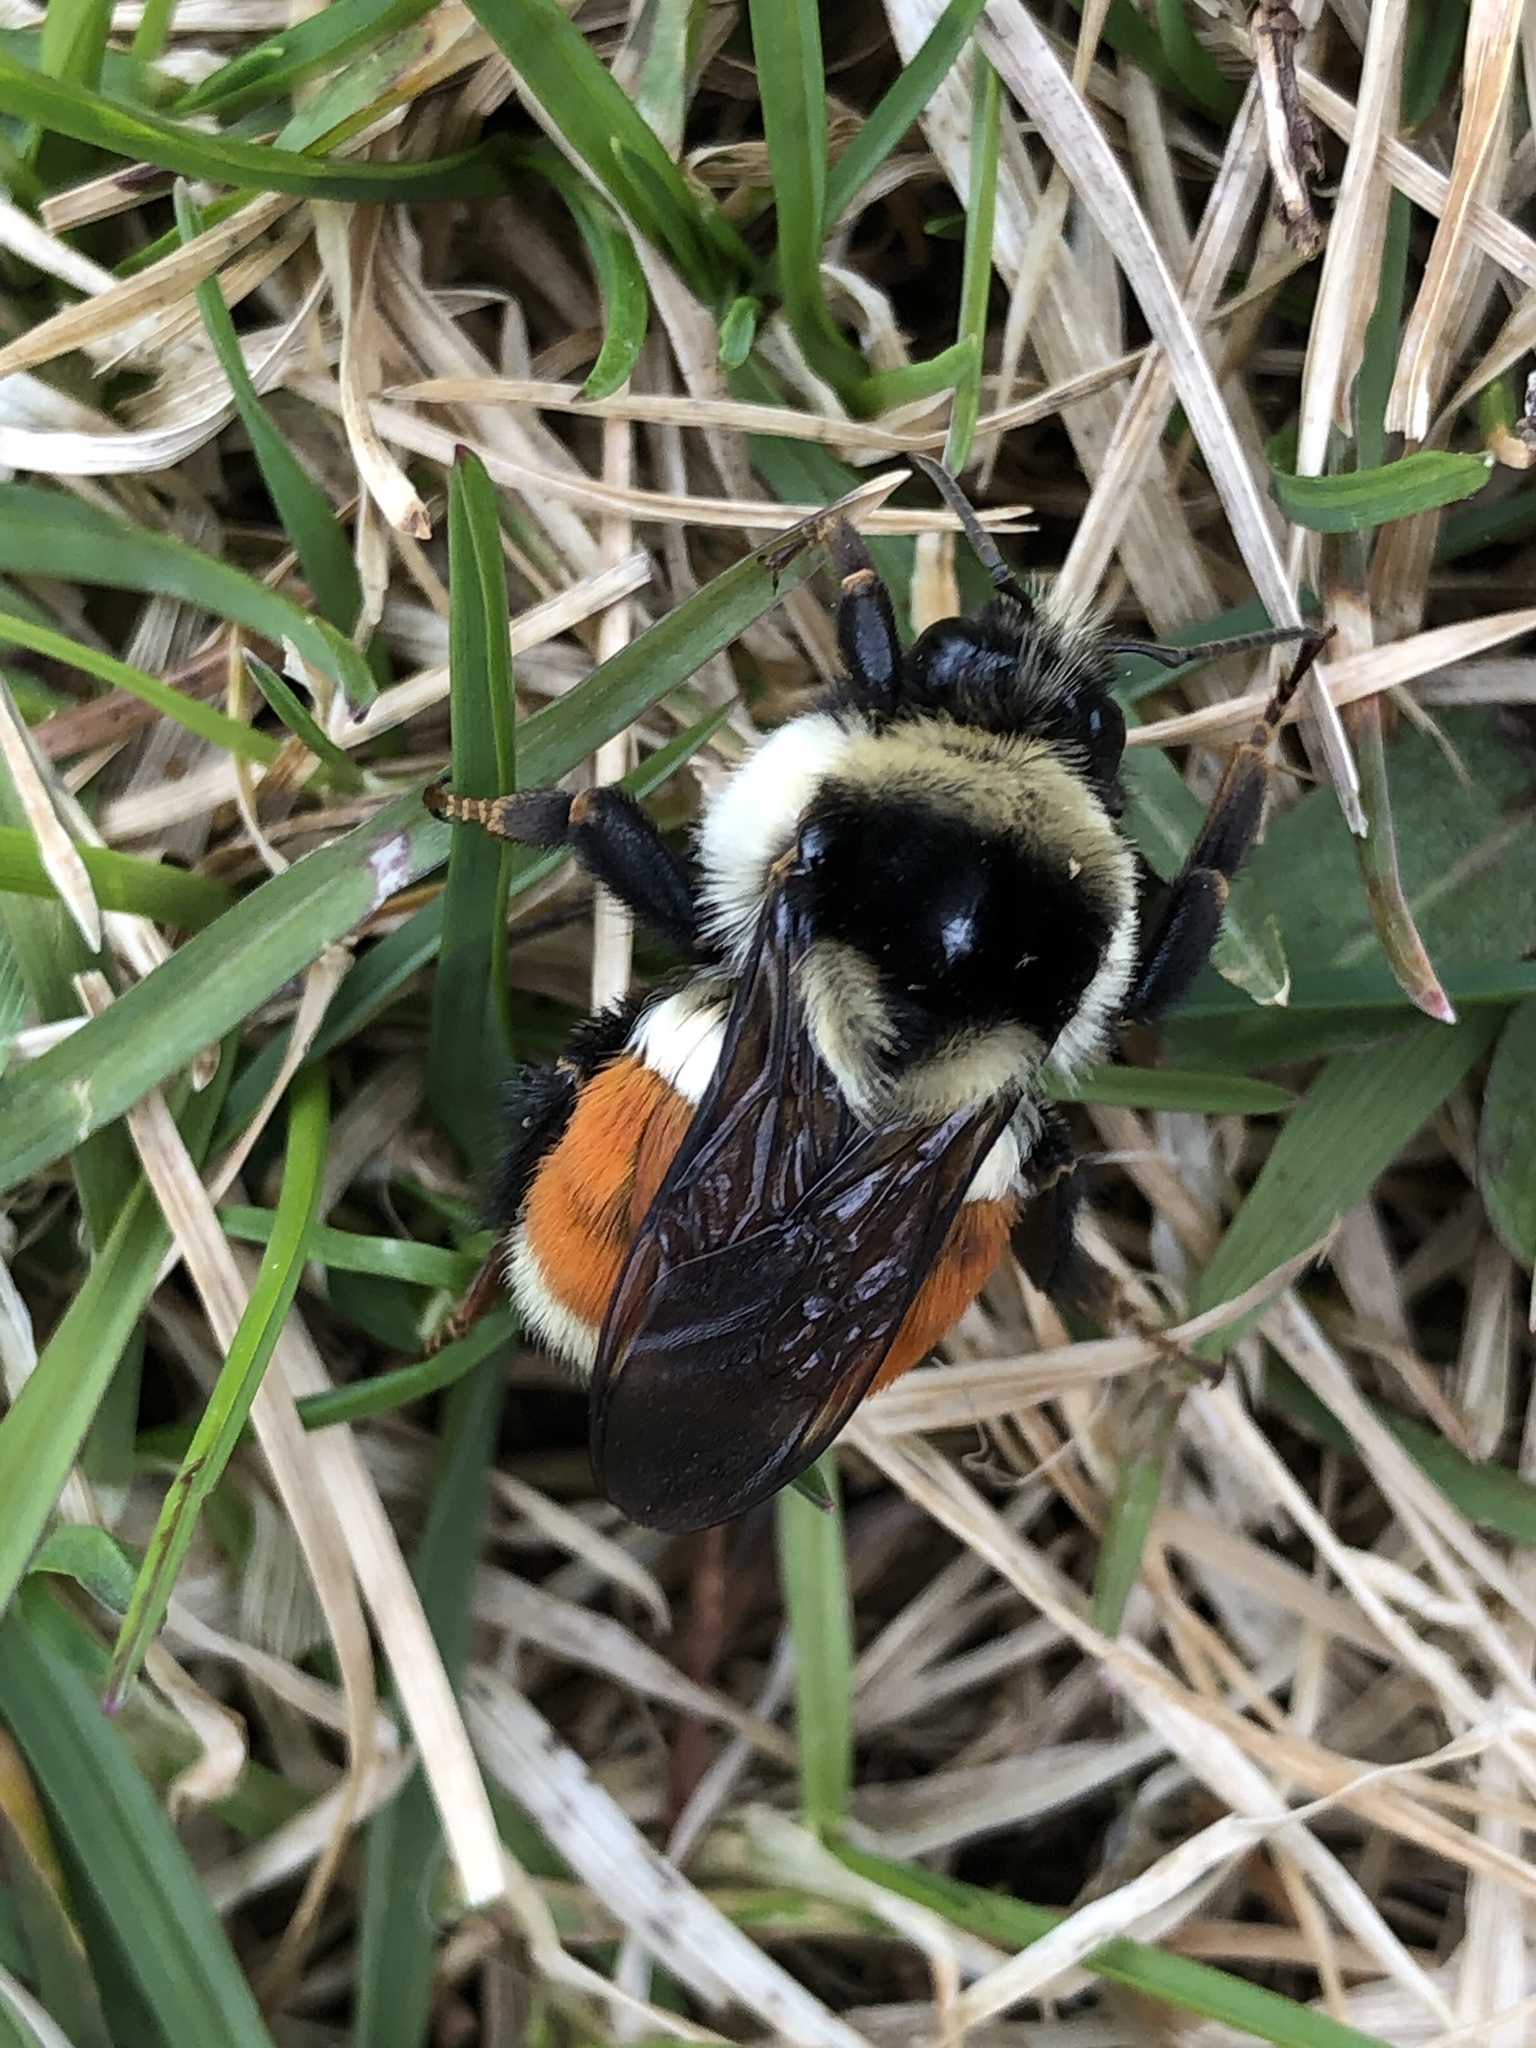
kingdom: Animalia
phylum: Arthropoda
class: Insecta
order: Hymenoptera
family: Apidae
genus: Bombus
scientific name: Bombus ternarius
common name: Tri-colored bumble bee
